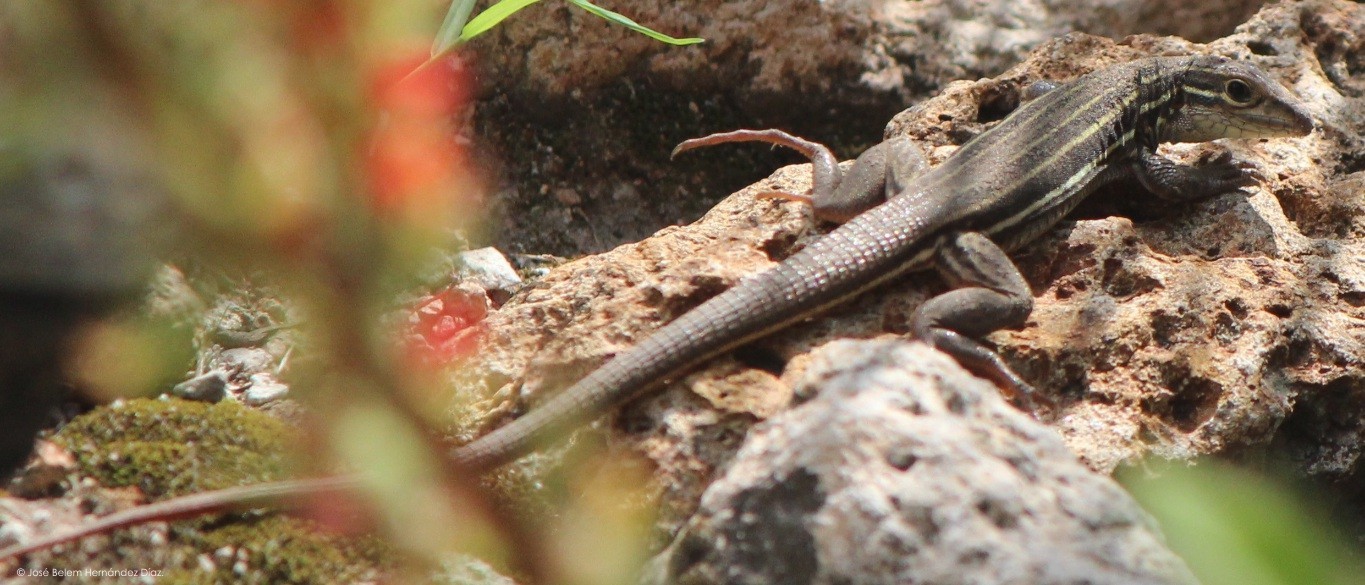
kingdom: Animalia
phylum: Chordata
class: Squamata
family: Teiidae
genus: Aspidoscelis
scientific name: Aspidoscelis gularis
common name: Eastern spotted whiptail
